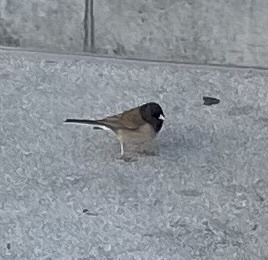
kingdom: Animalia
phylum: Chordata
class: Aves
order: Passeriformes
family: Passerellidae
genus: Junco
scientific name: Junco hyemalis
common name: Dark-eyed junco
